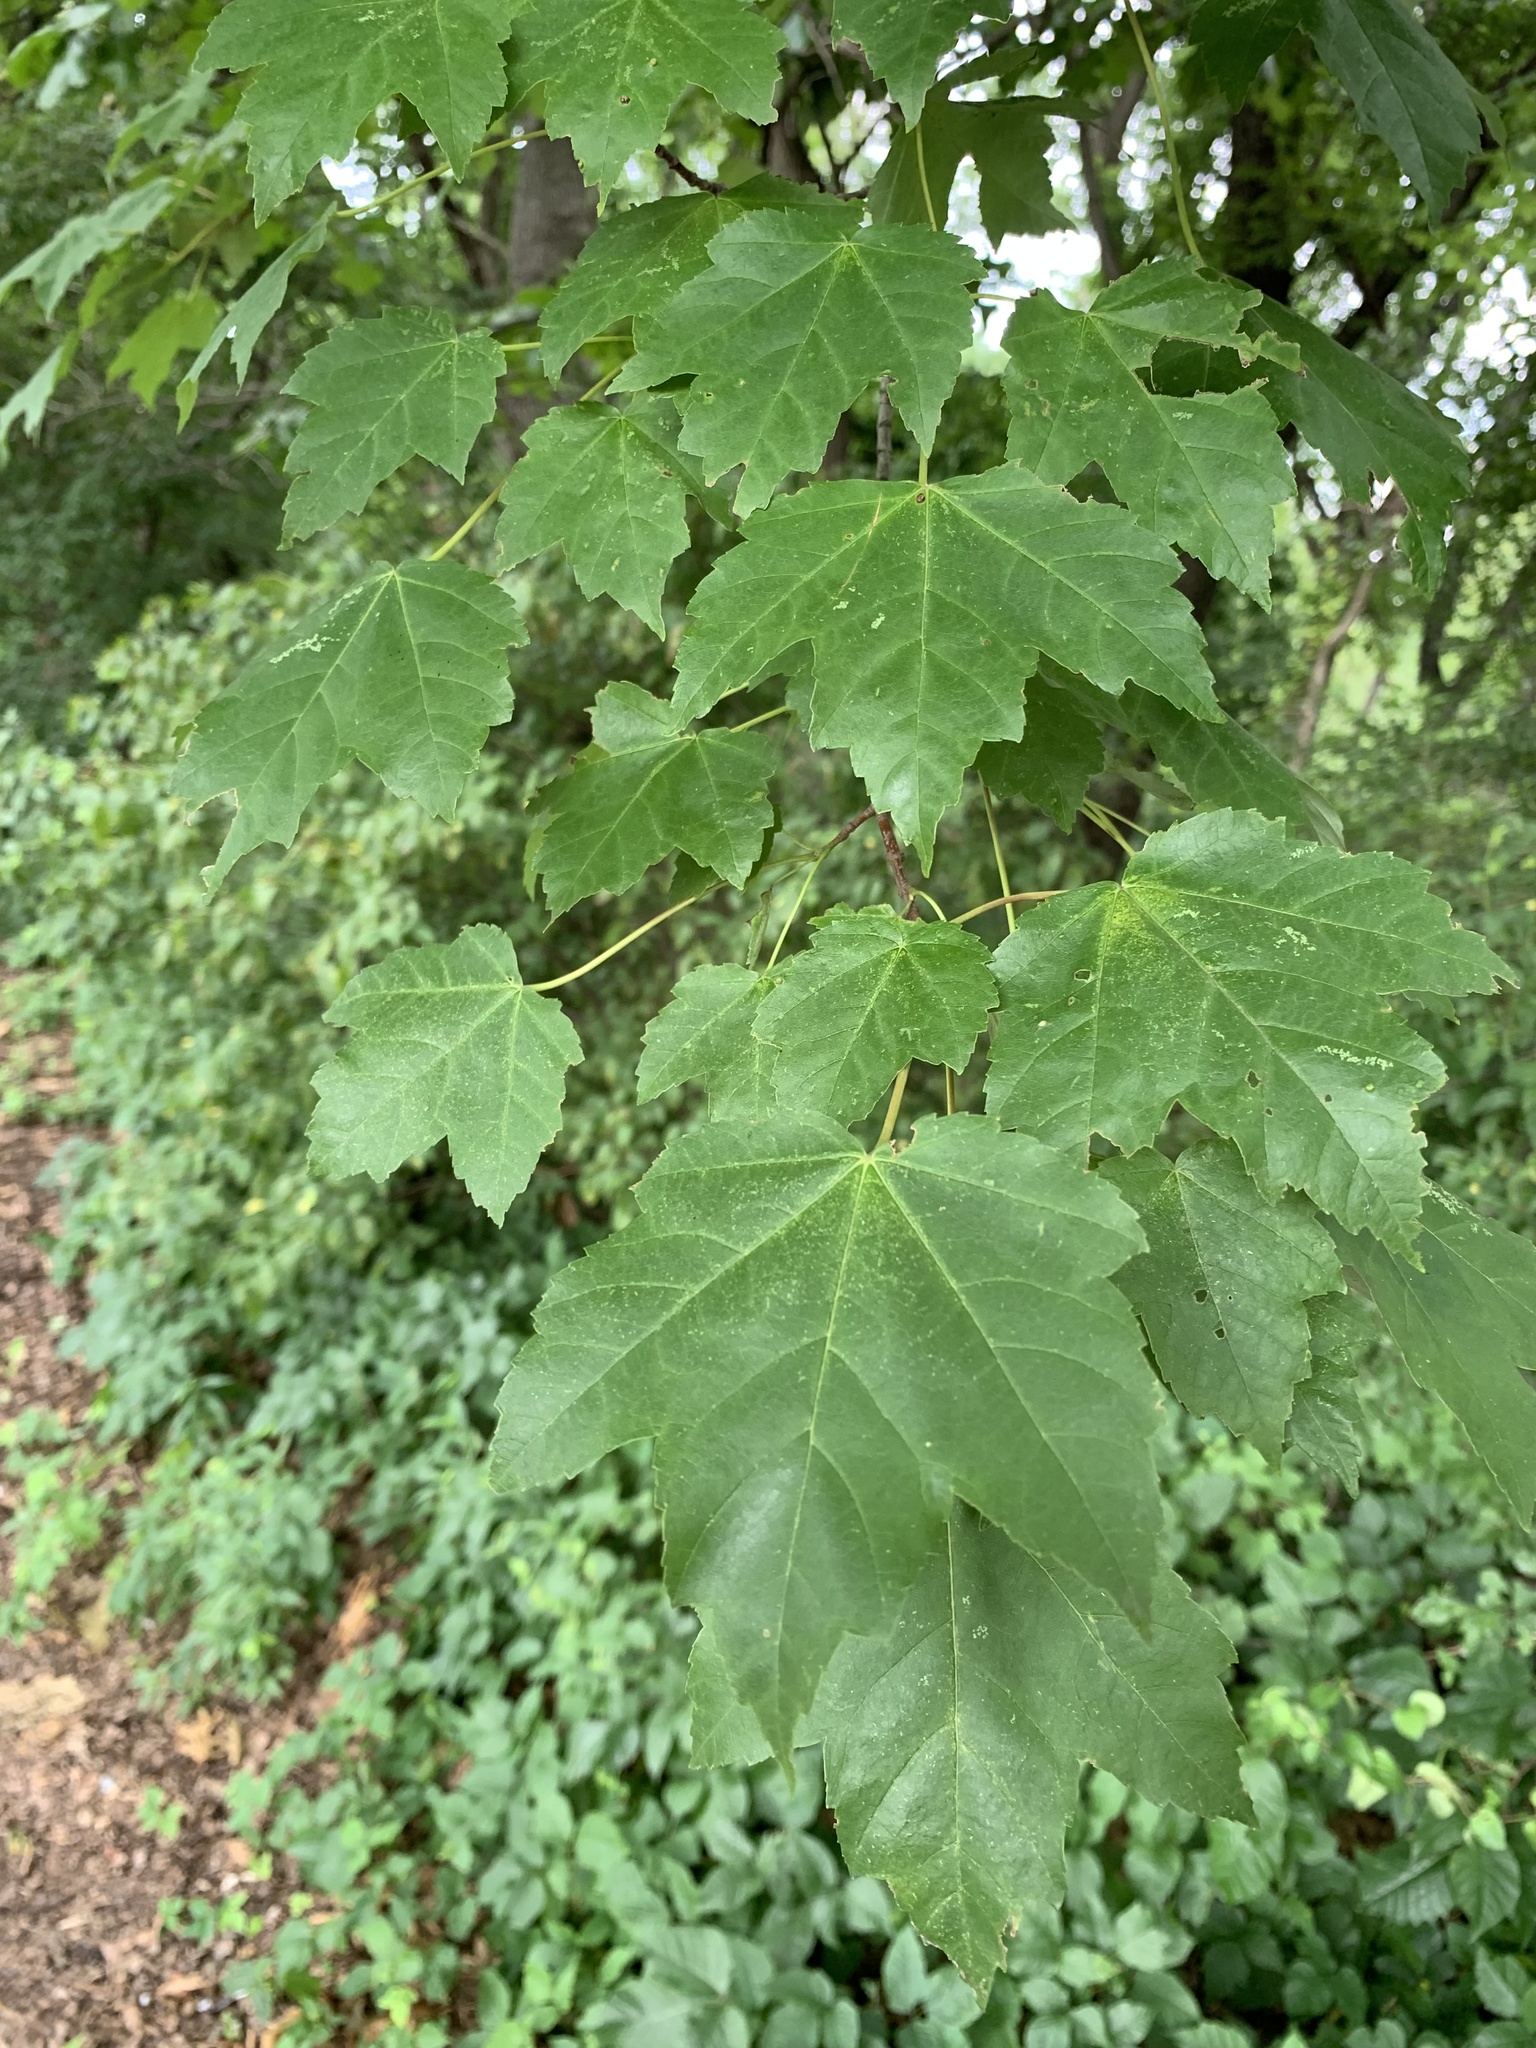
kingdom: Plantae
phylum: Tracheophyta
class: Magnoliopsida
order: Sapindales
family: Sapindaceae
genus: Acer
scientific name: Acer rubrum
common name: Red maple
